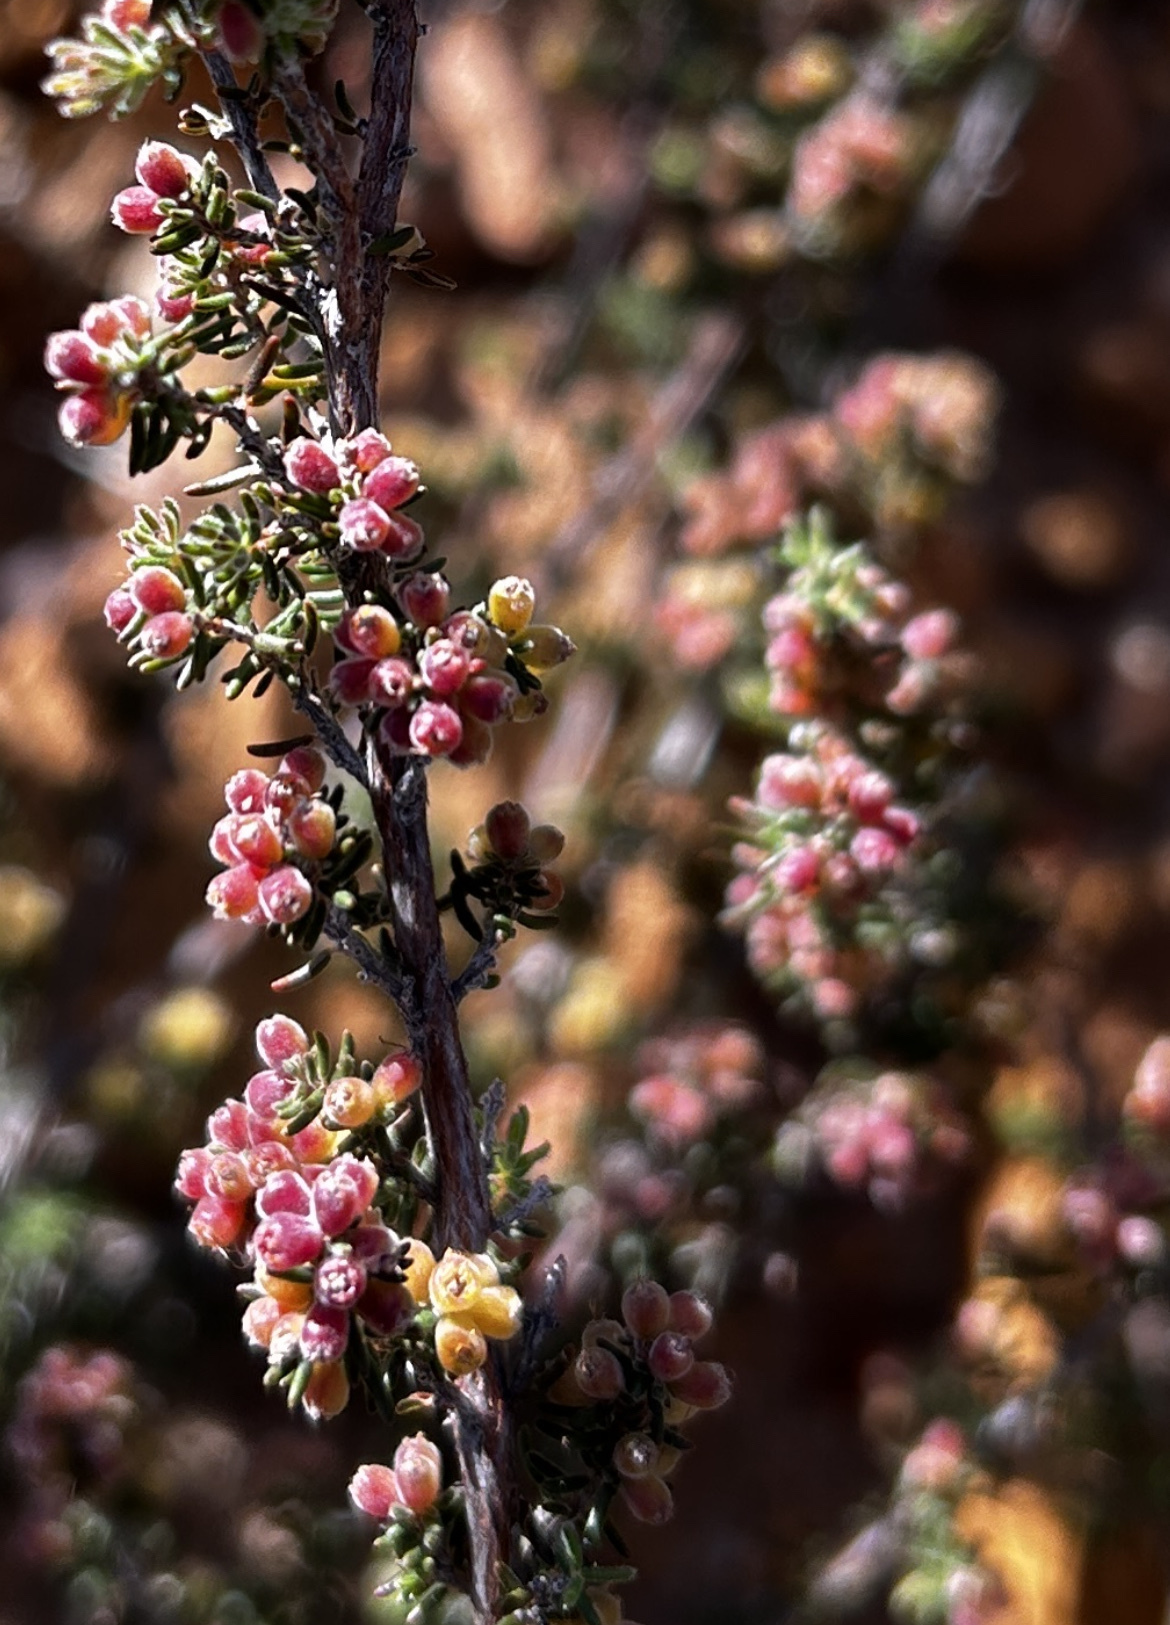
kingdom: Plantae
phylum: Tracheophyta
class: Magnoliopsida
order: Ericales
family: Ericaceae
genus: Erica
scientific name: Erica anguliger
